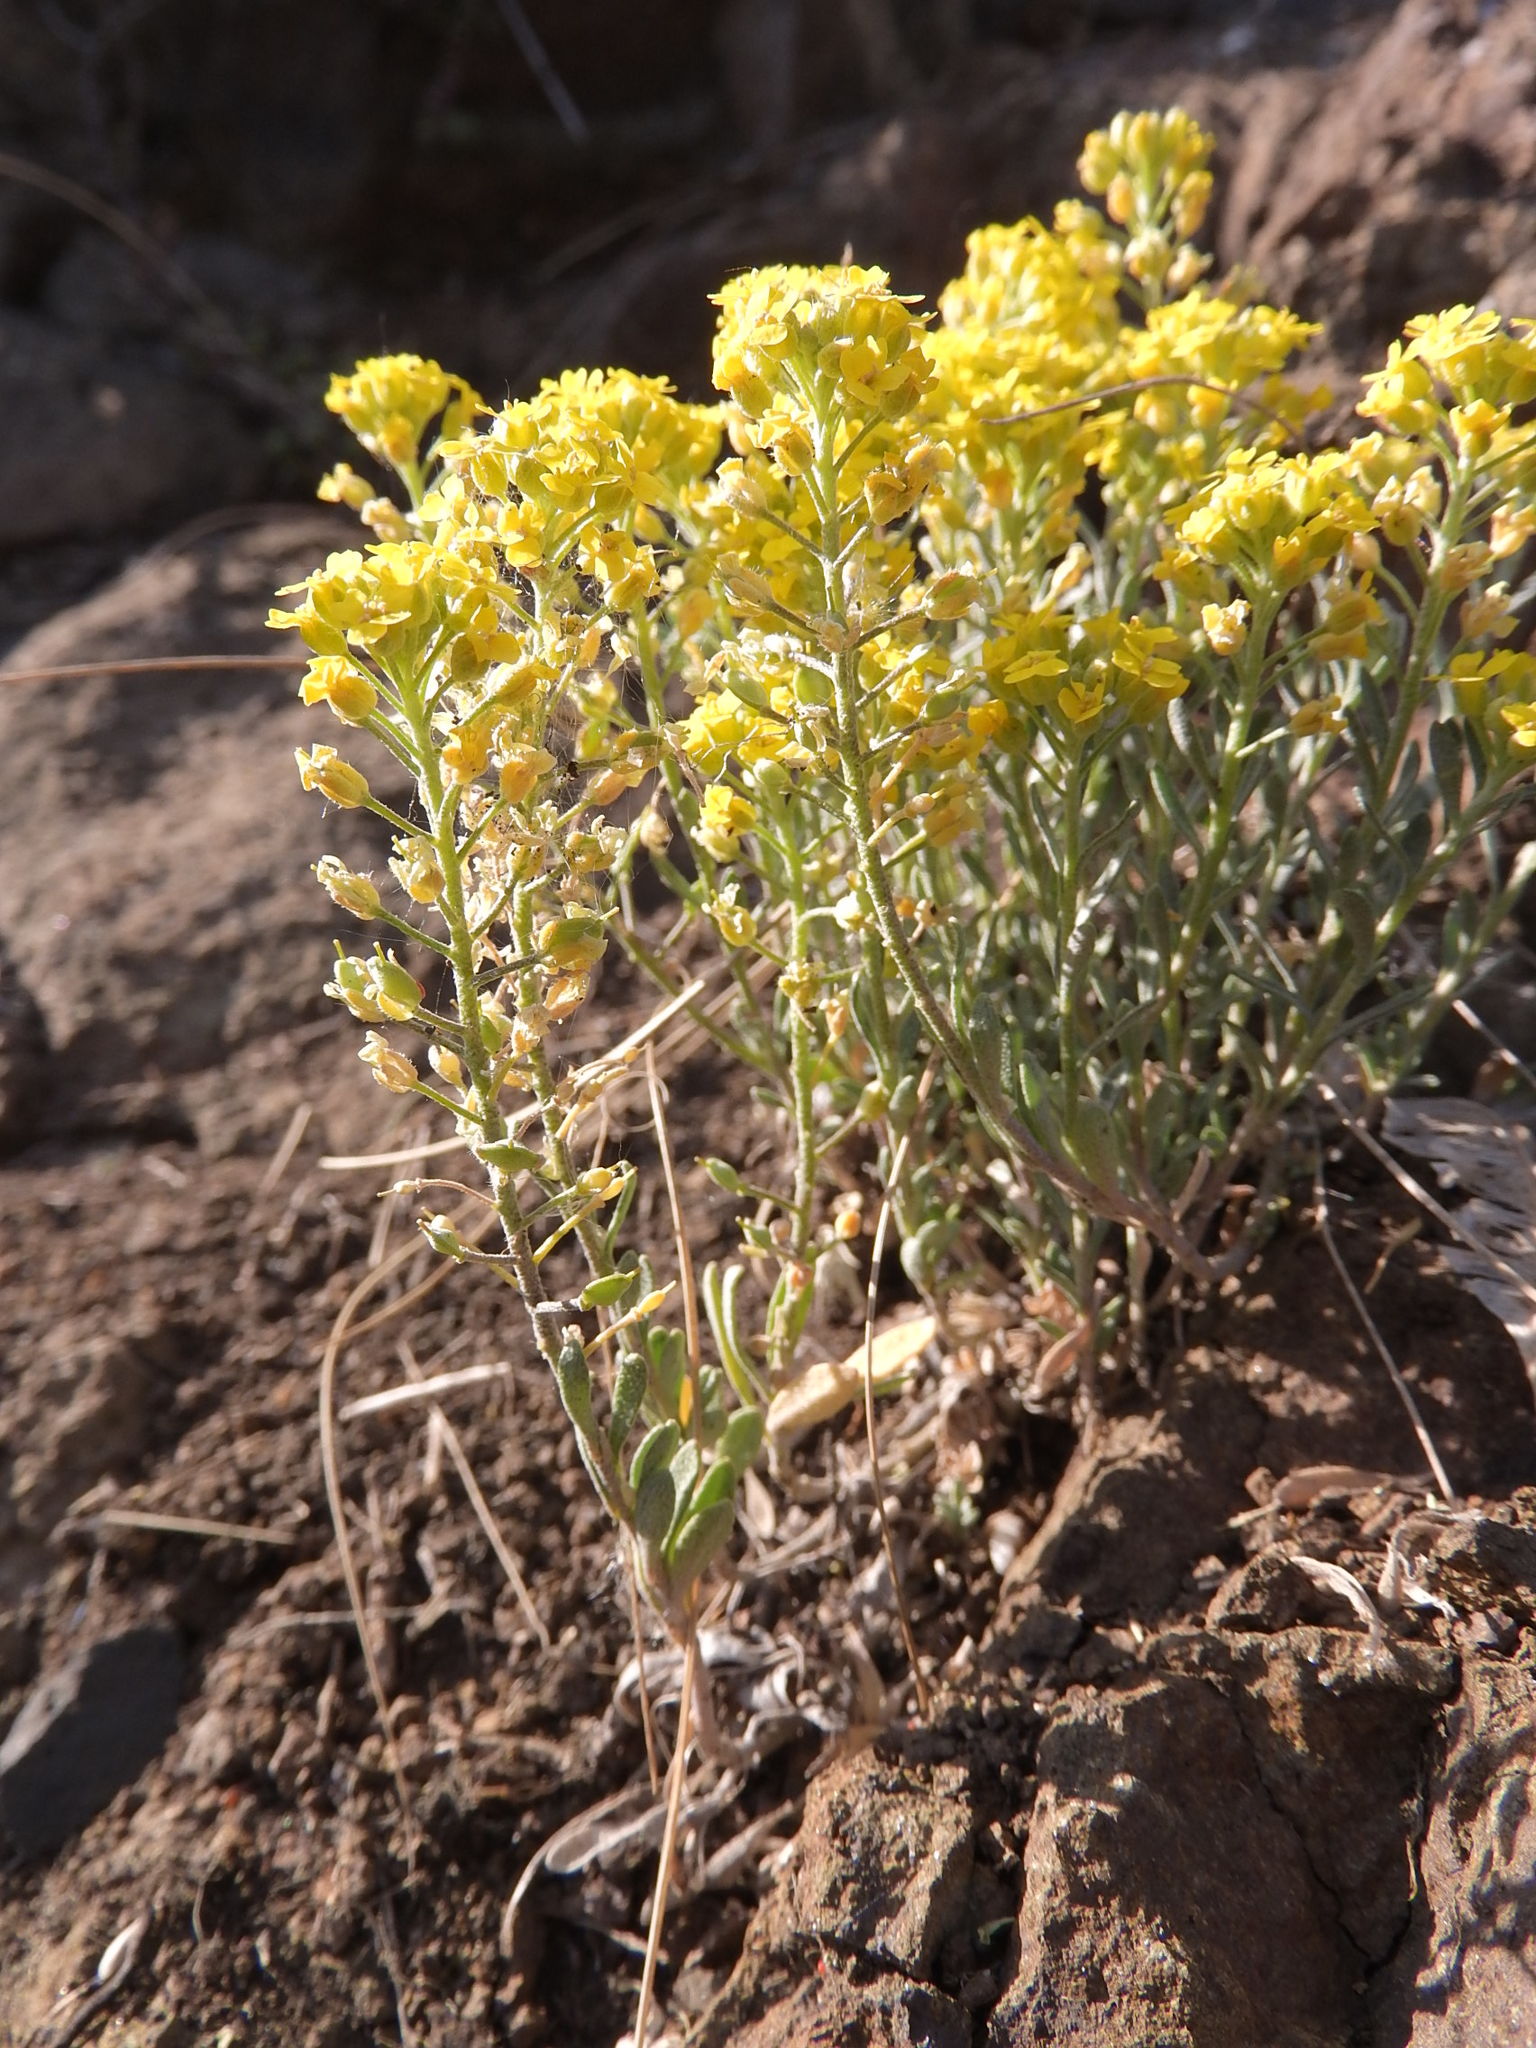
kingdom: Plantae
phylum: Tracheophyta
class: Magnoliopsida
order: Brassicales
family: Brassicaceae
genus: Alyssum
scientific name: Alyssum gmelinii
